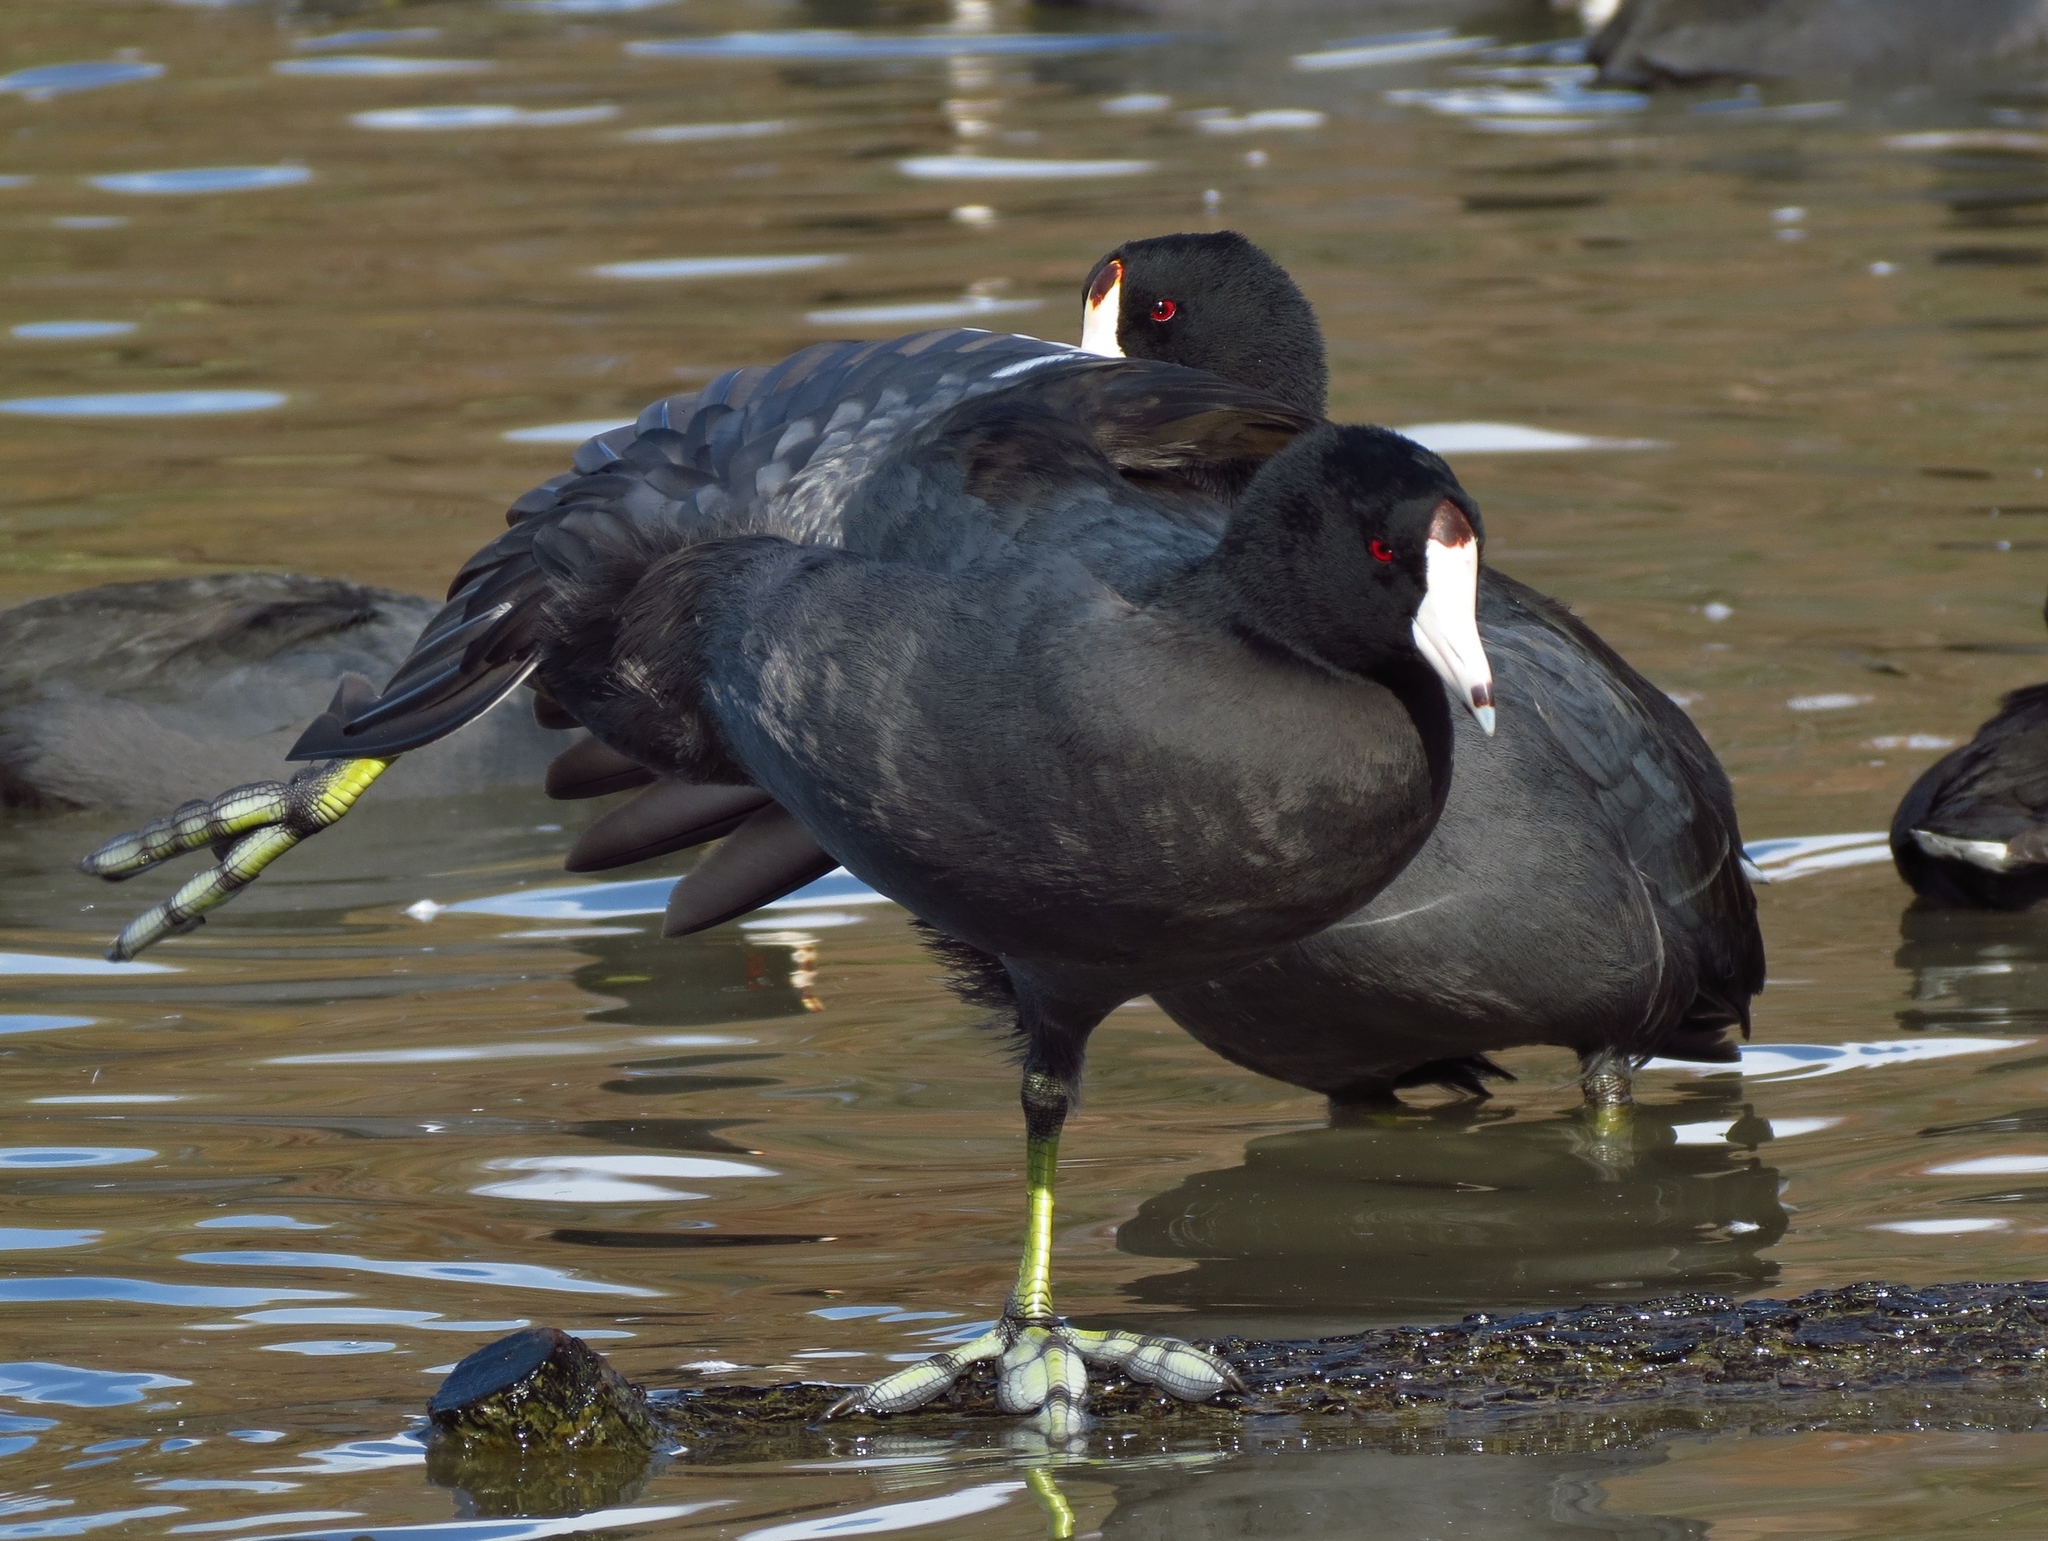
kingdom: Animalia
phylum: Chordata
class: Aves
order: Gruiformes
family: Rallidae
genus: Fulica
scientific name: Fulica americana
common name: American coot
